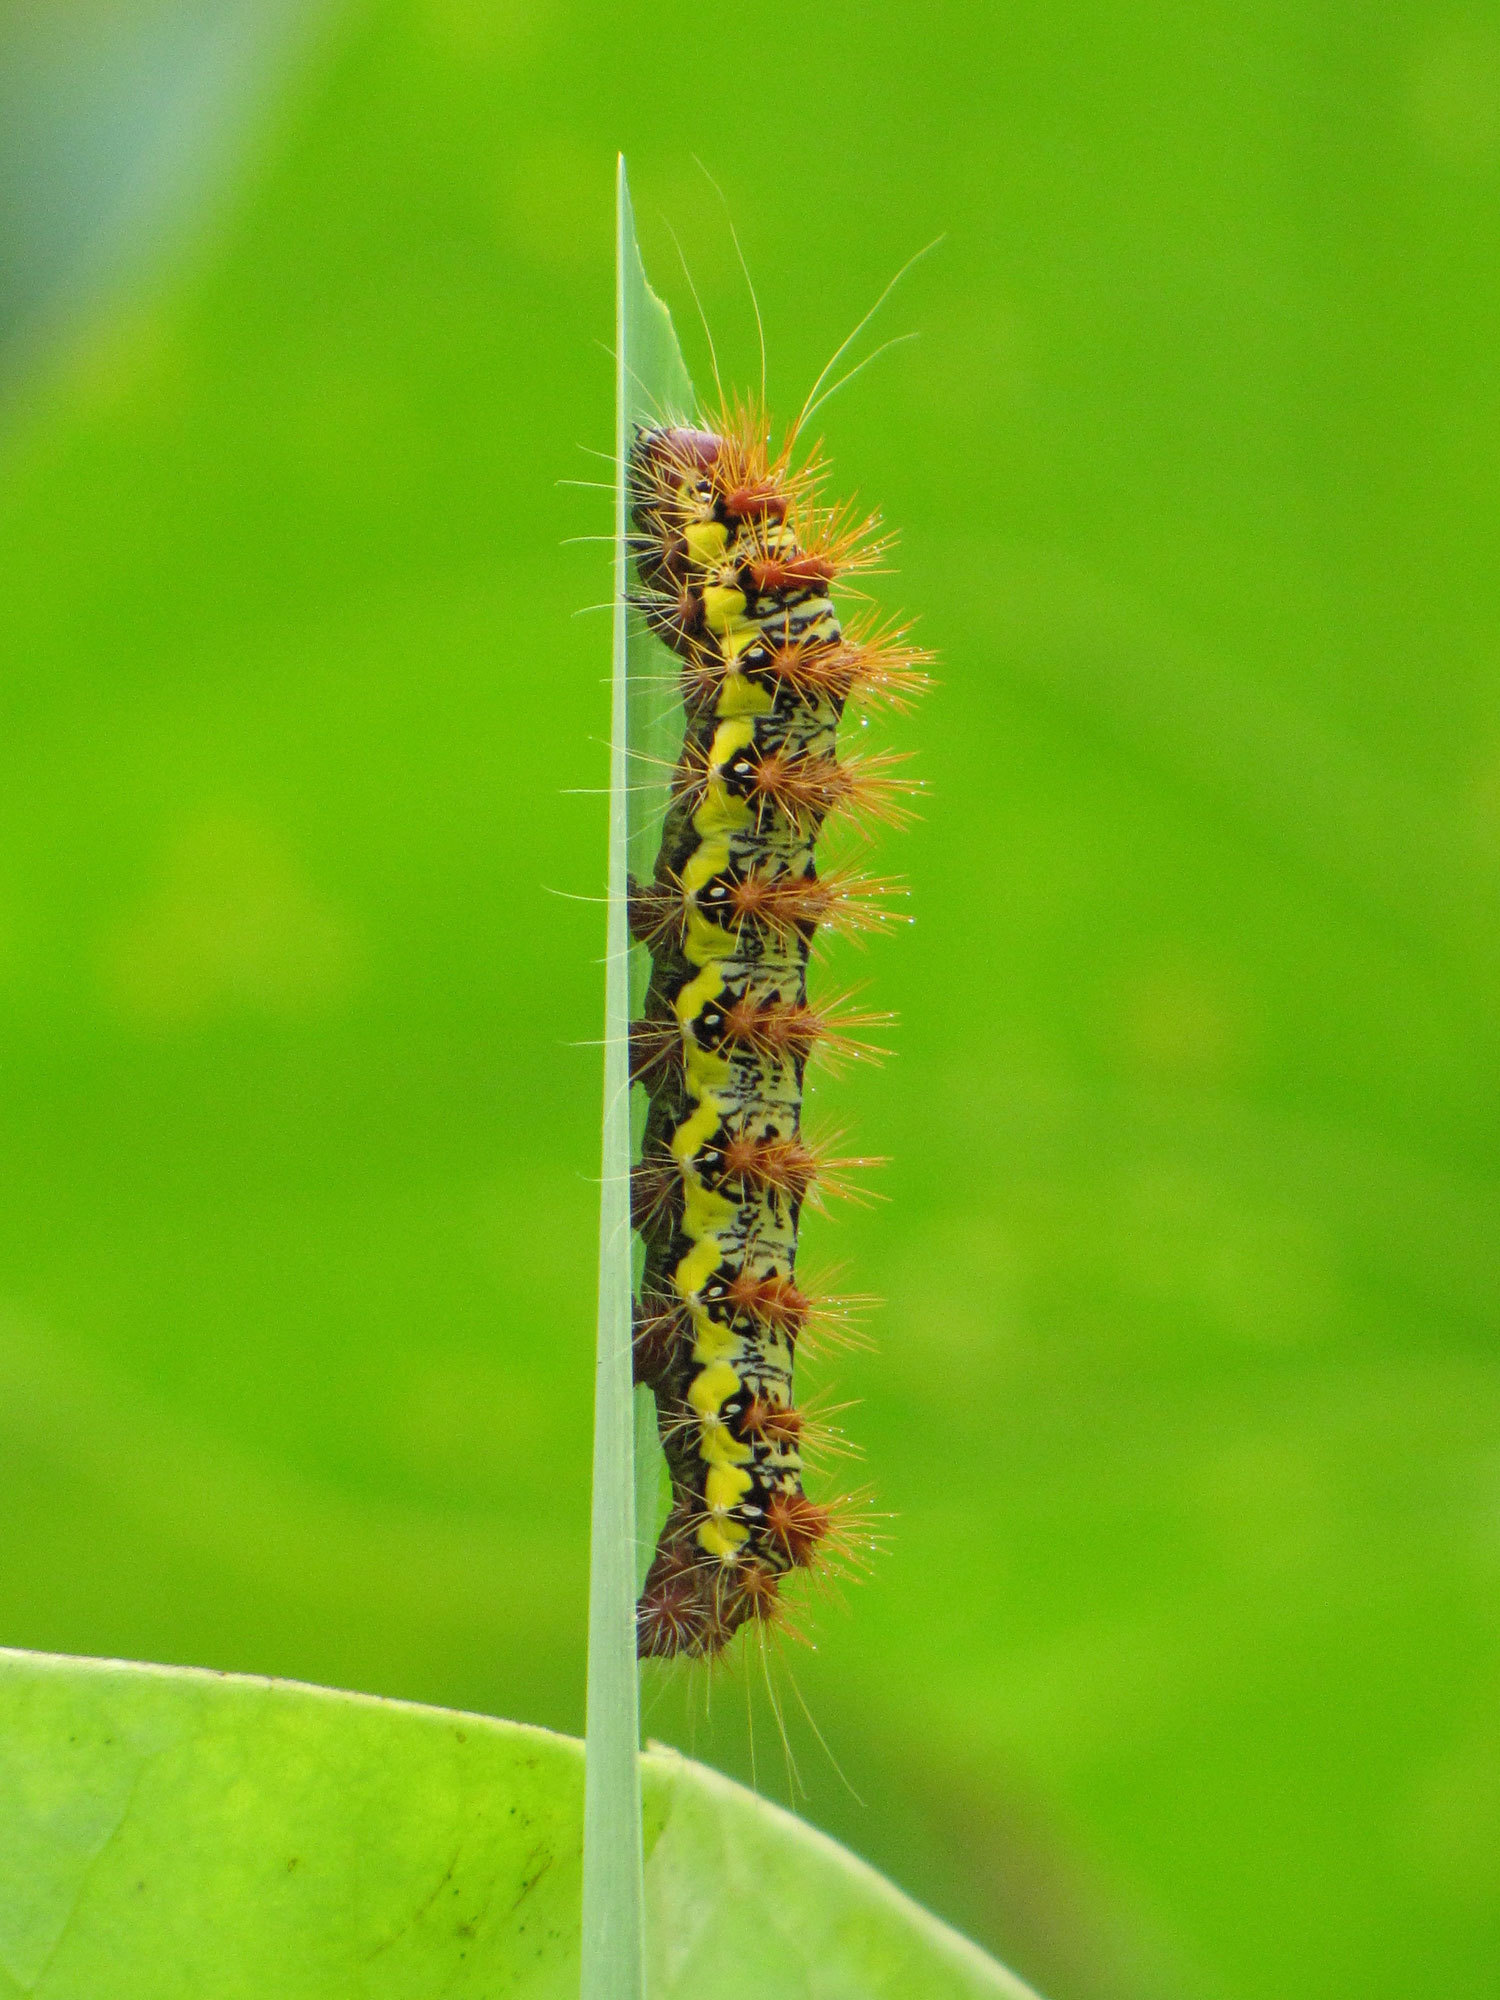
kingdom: Animalia
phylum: Arthropoda
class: Insecta
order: Lepidoptera
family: Noctuidae
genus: Acronicta
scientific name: Acronicta oblinita
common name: Smeared dagger
